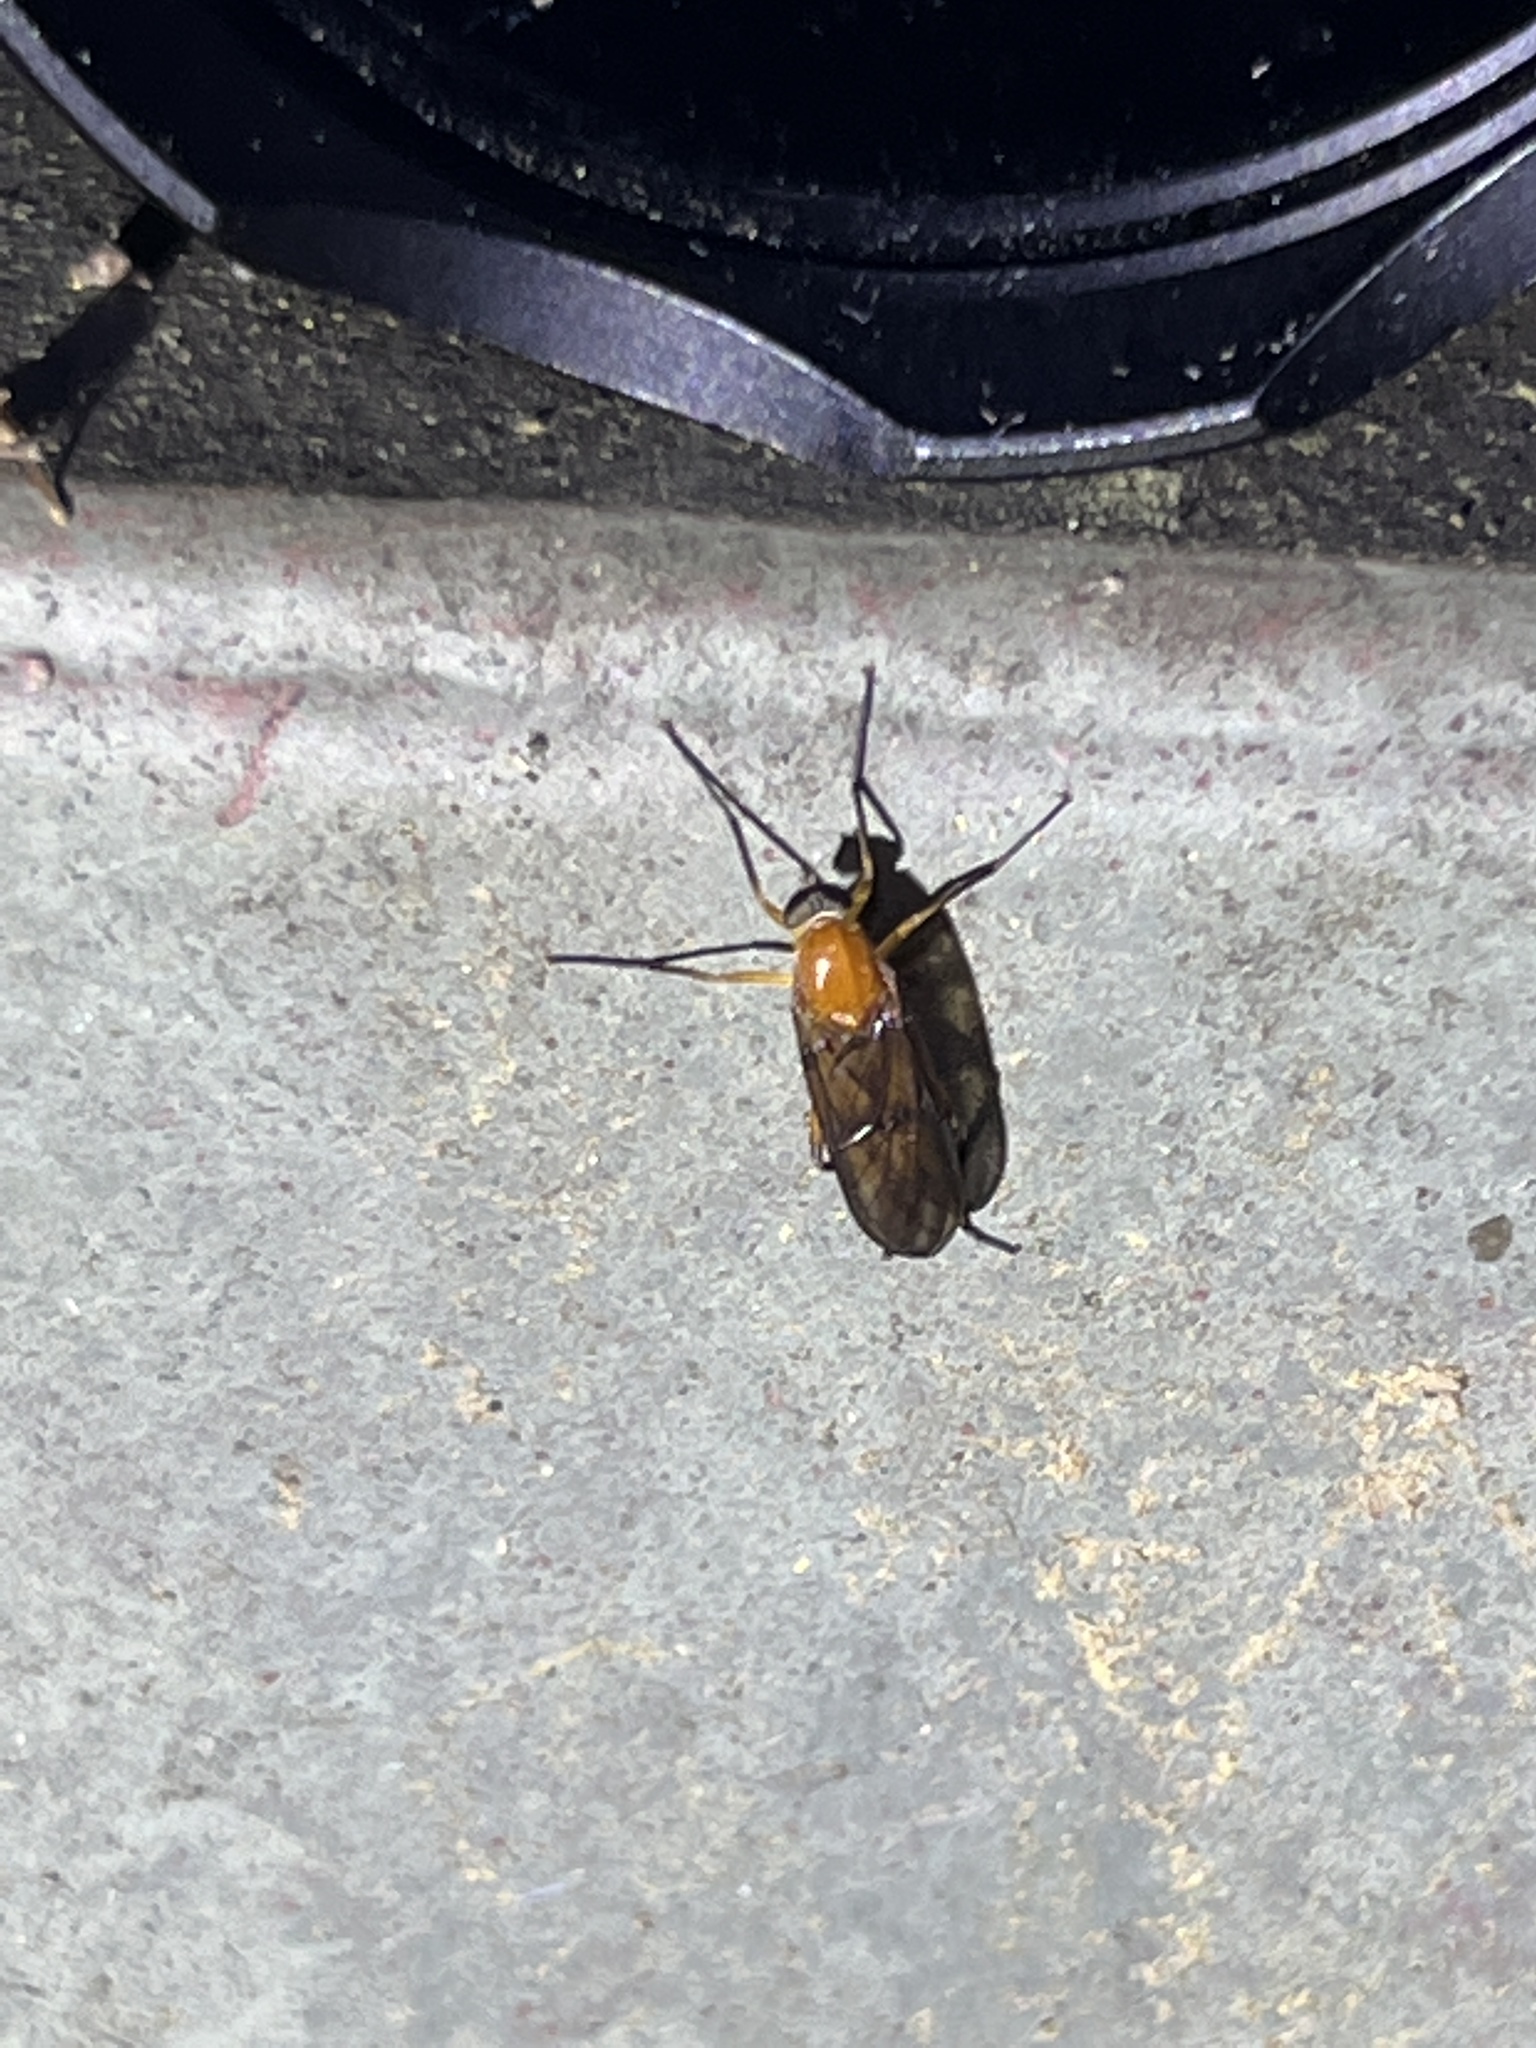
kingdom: Animalia
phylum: Arthropoda
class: Insecta
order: Diptera
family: Xylophagidae
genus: Dialysis
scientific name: Dialysis rufithorax
